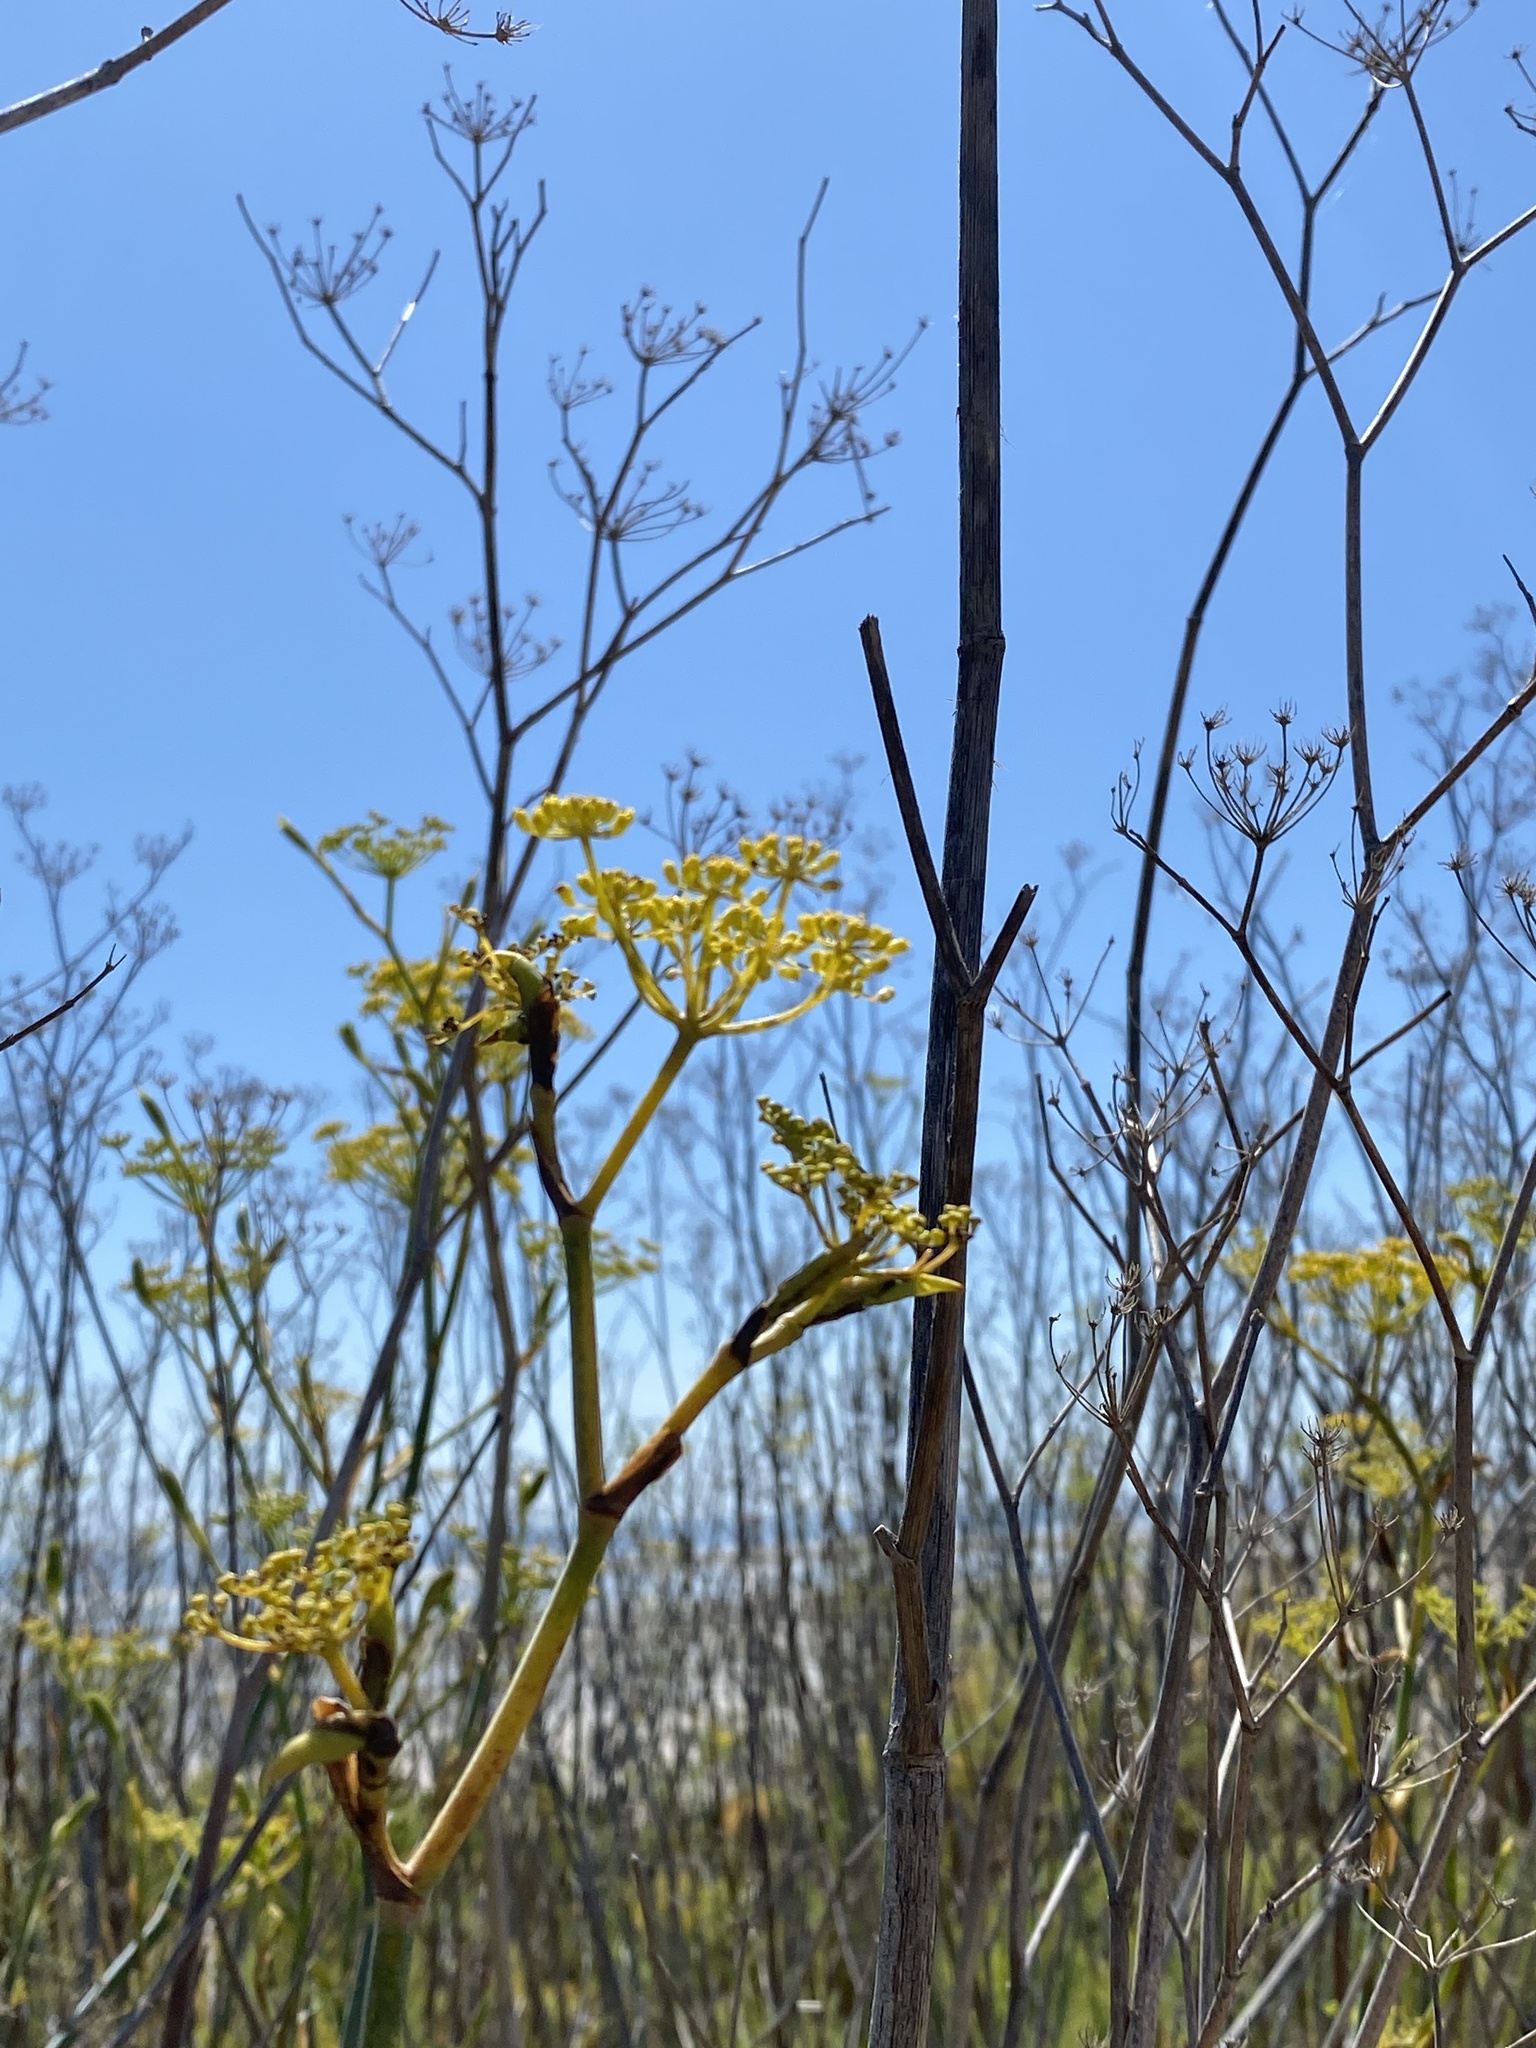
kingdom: Plantae
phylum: Tracheophyta
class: Magnoliopsida
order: Apiales
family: Apiaceae
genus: Foeniculum
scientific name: Foeniculum vulgare
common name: Fennel
